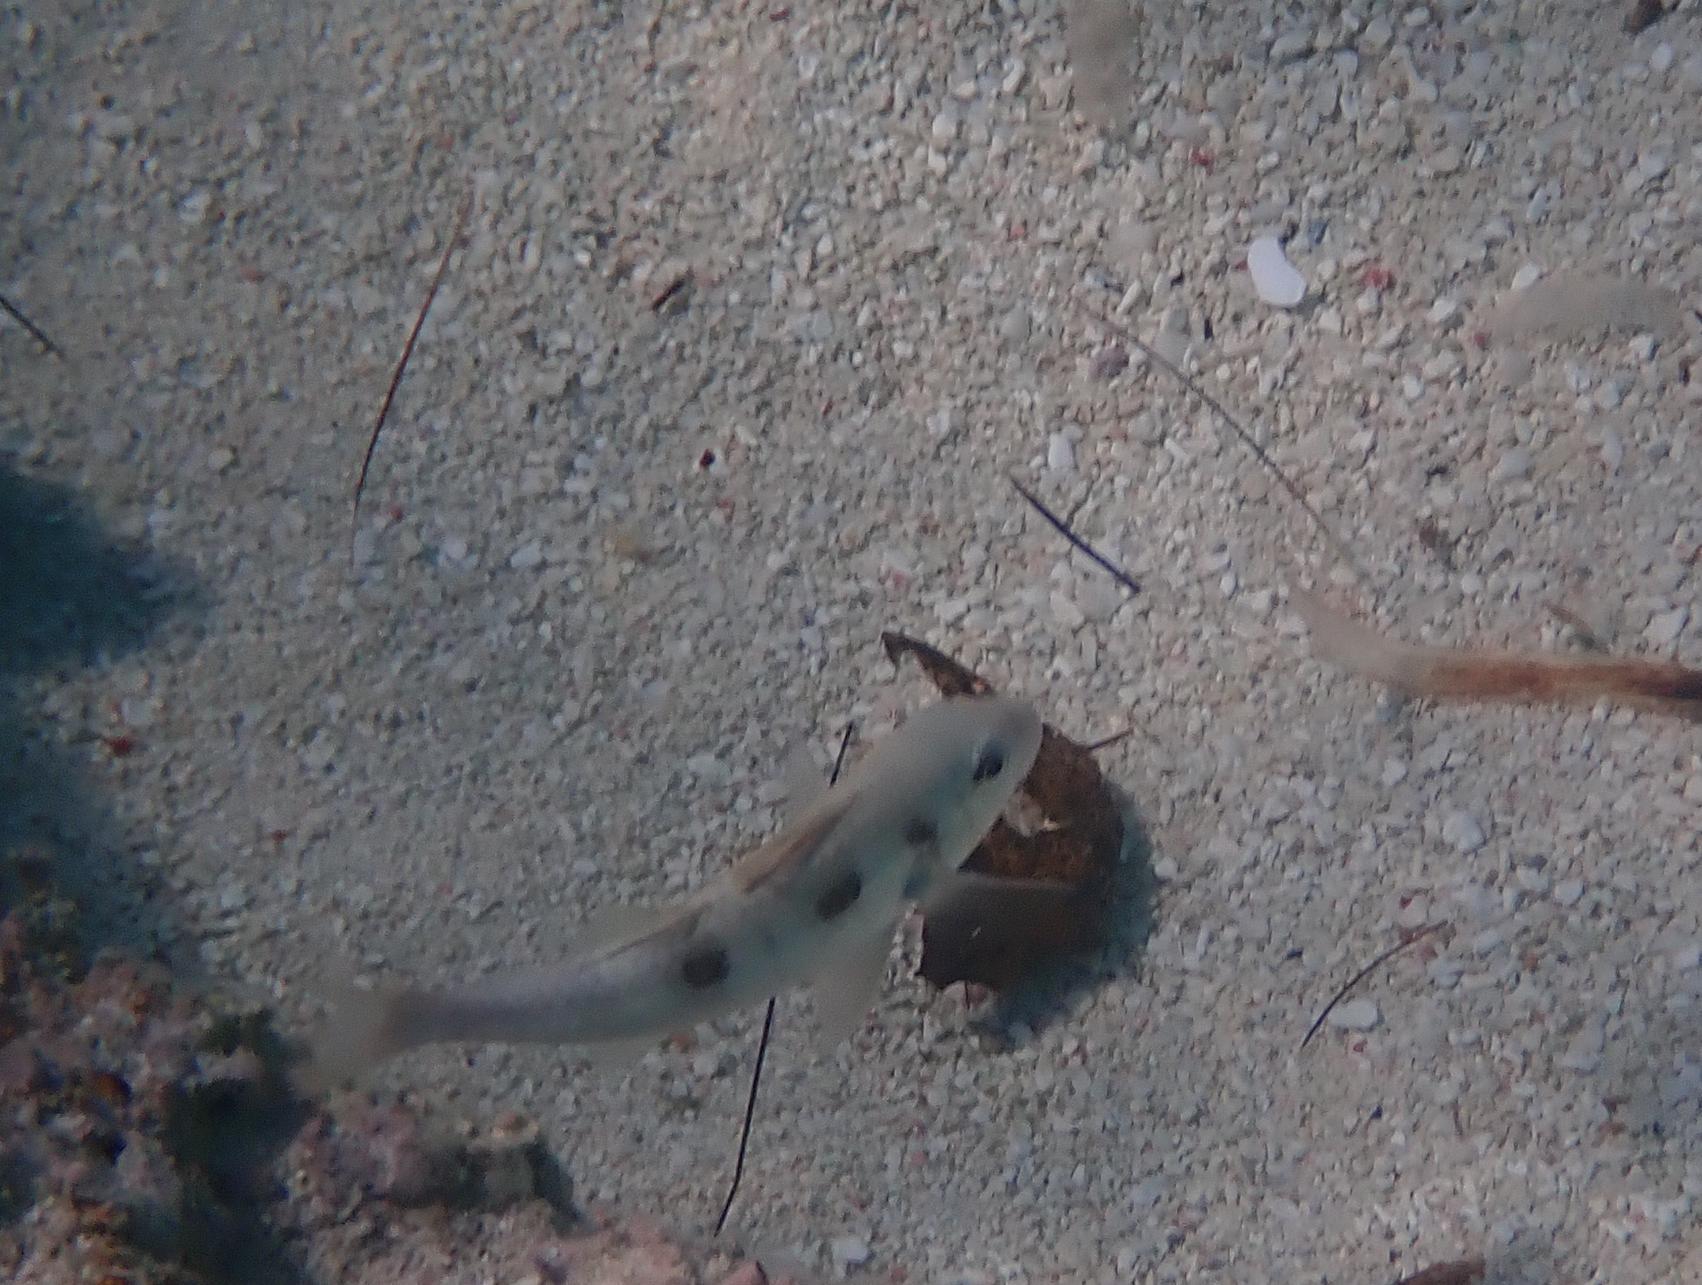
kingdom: Animalia
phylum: Chordata
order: Perciformes
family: Mullidae
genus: Pseudupeneus
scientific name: Pseudupeneus maculatus
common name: Spotted goatfish
